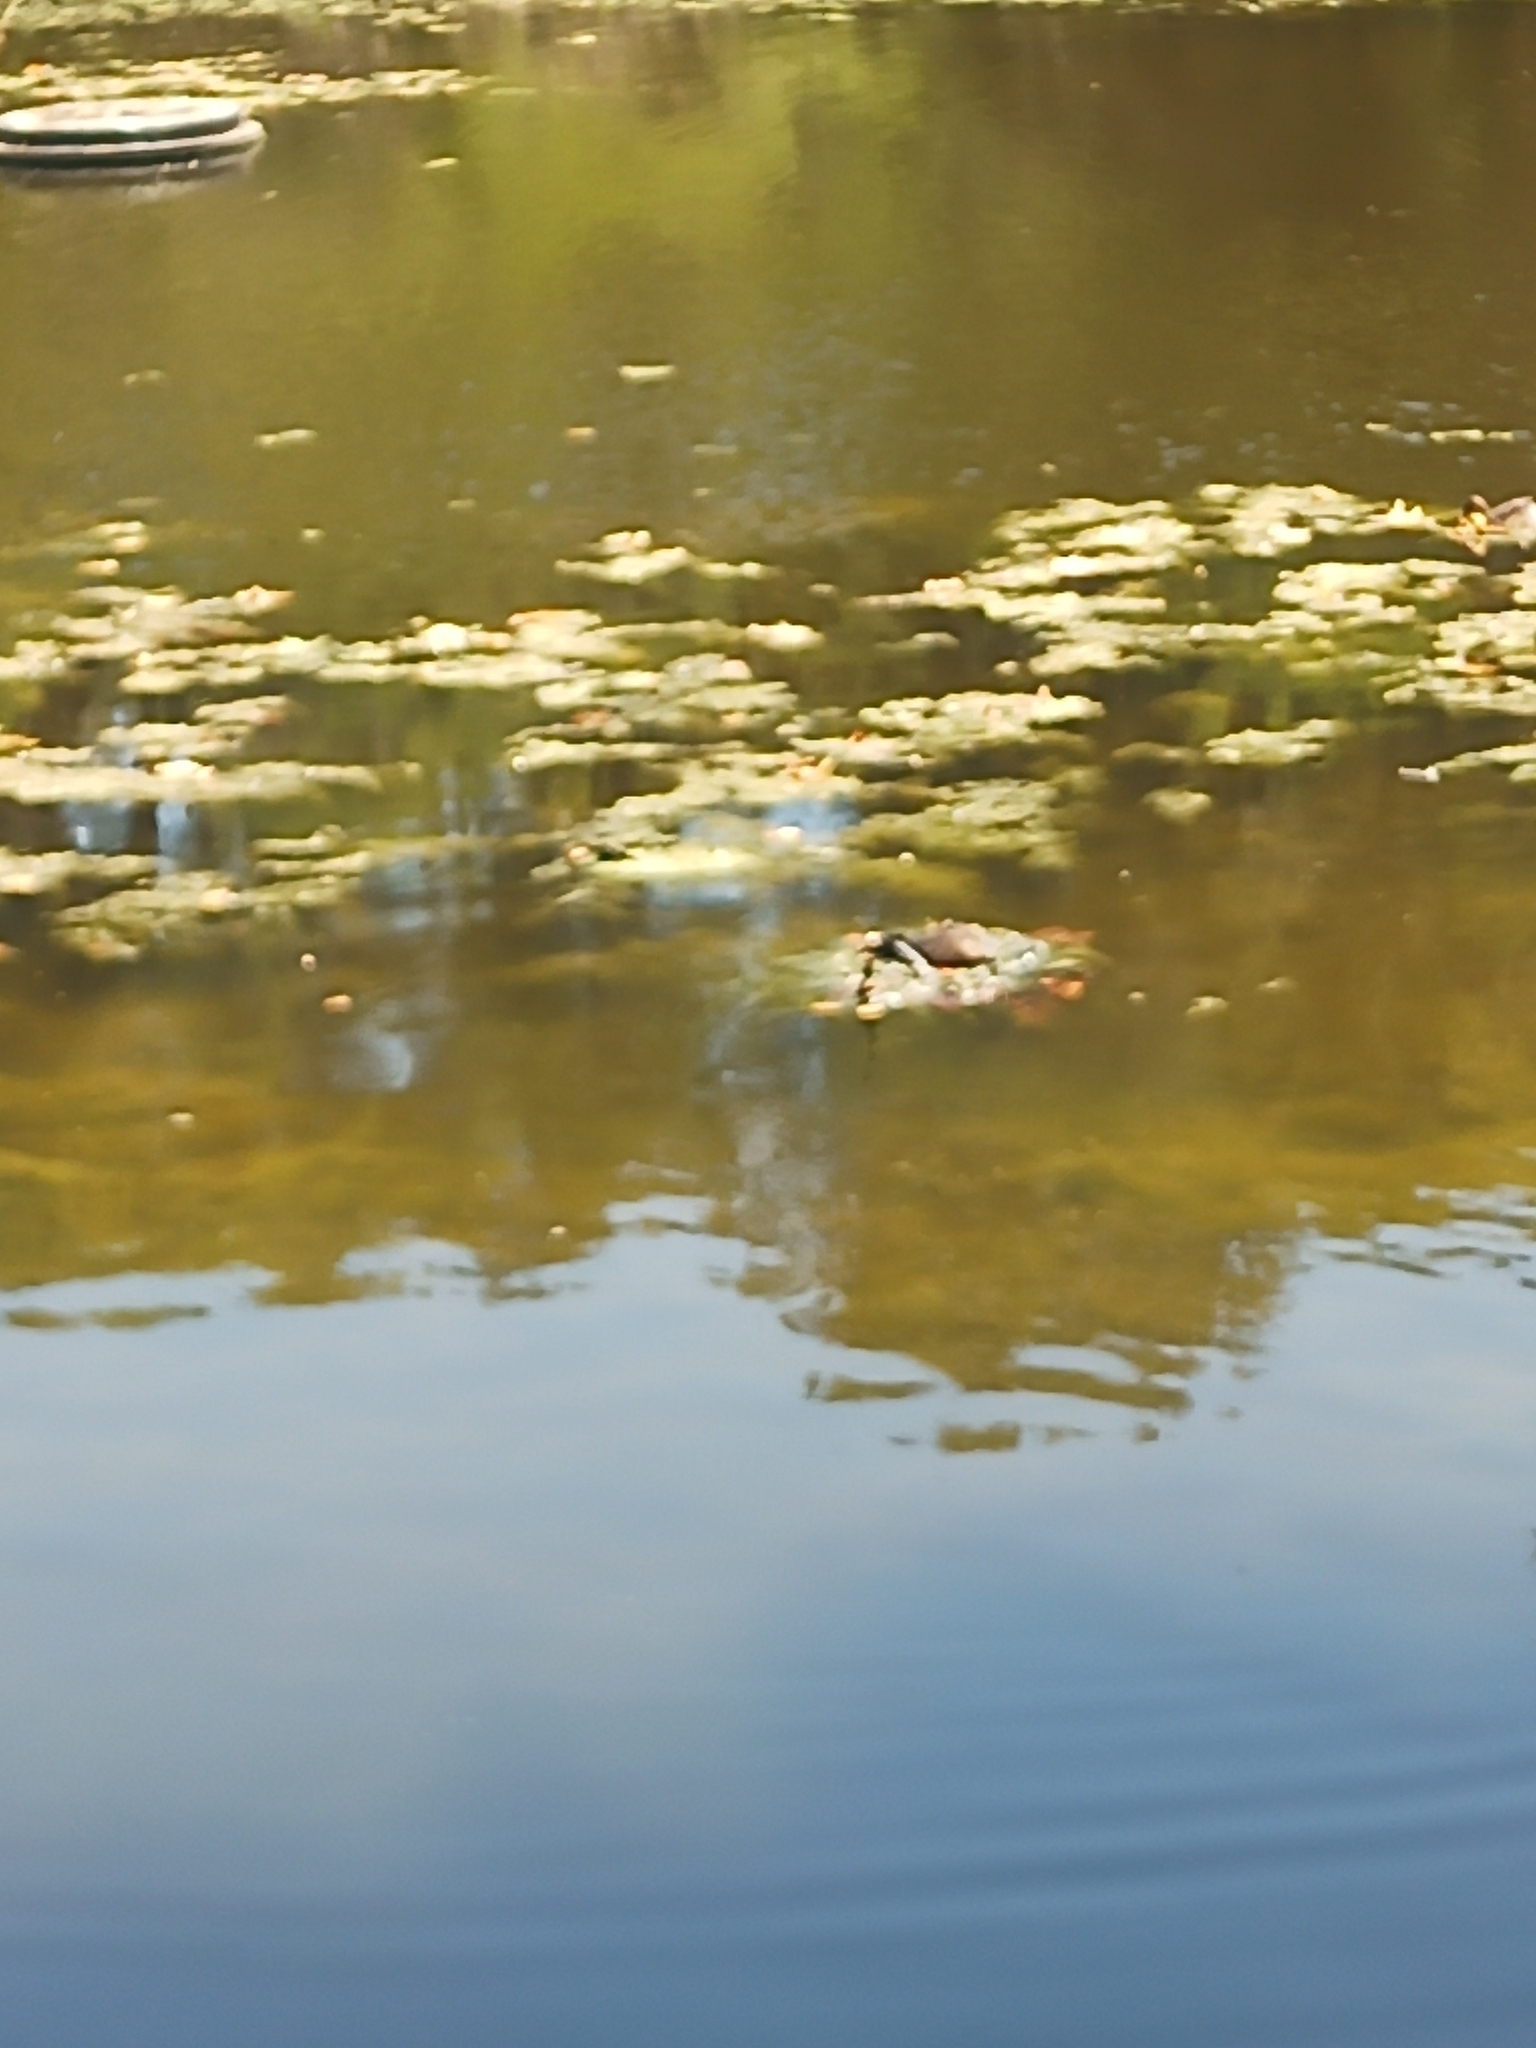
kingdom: Animalia
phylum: Chordata
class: Aves
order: Podicipediformes
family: Podicipedidae
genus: Tachybaptus
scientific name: Tachybaptus novaehollandiae
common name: Australasian grebe
